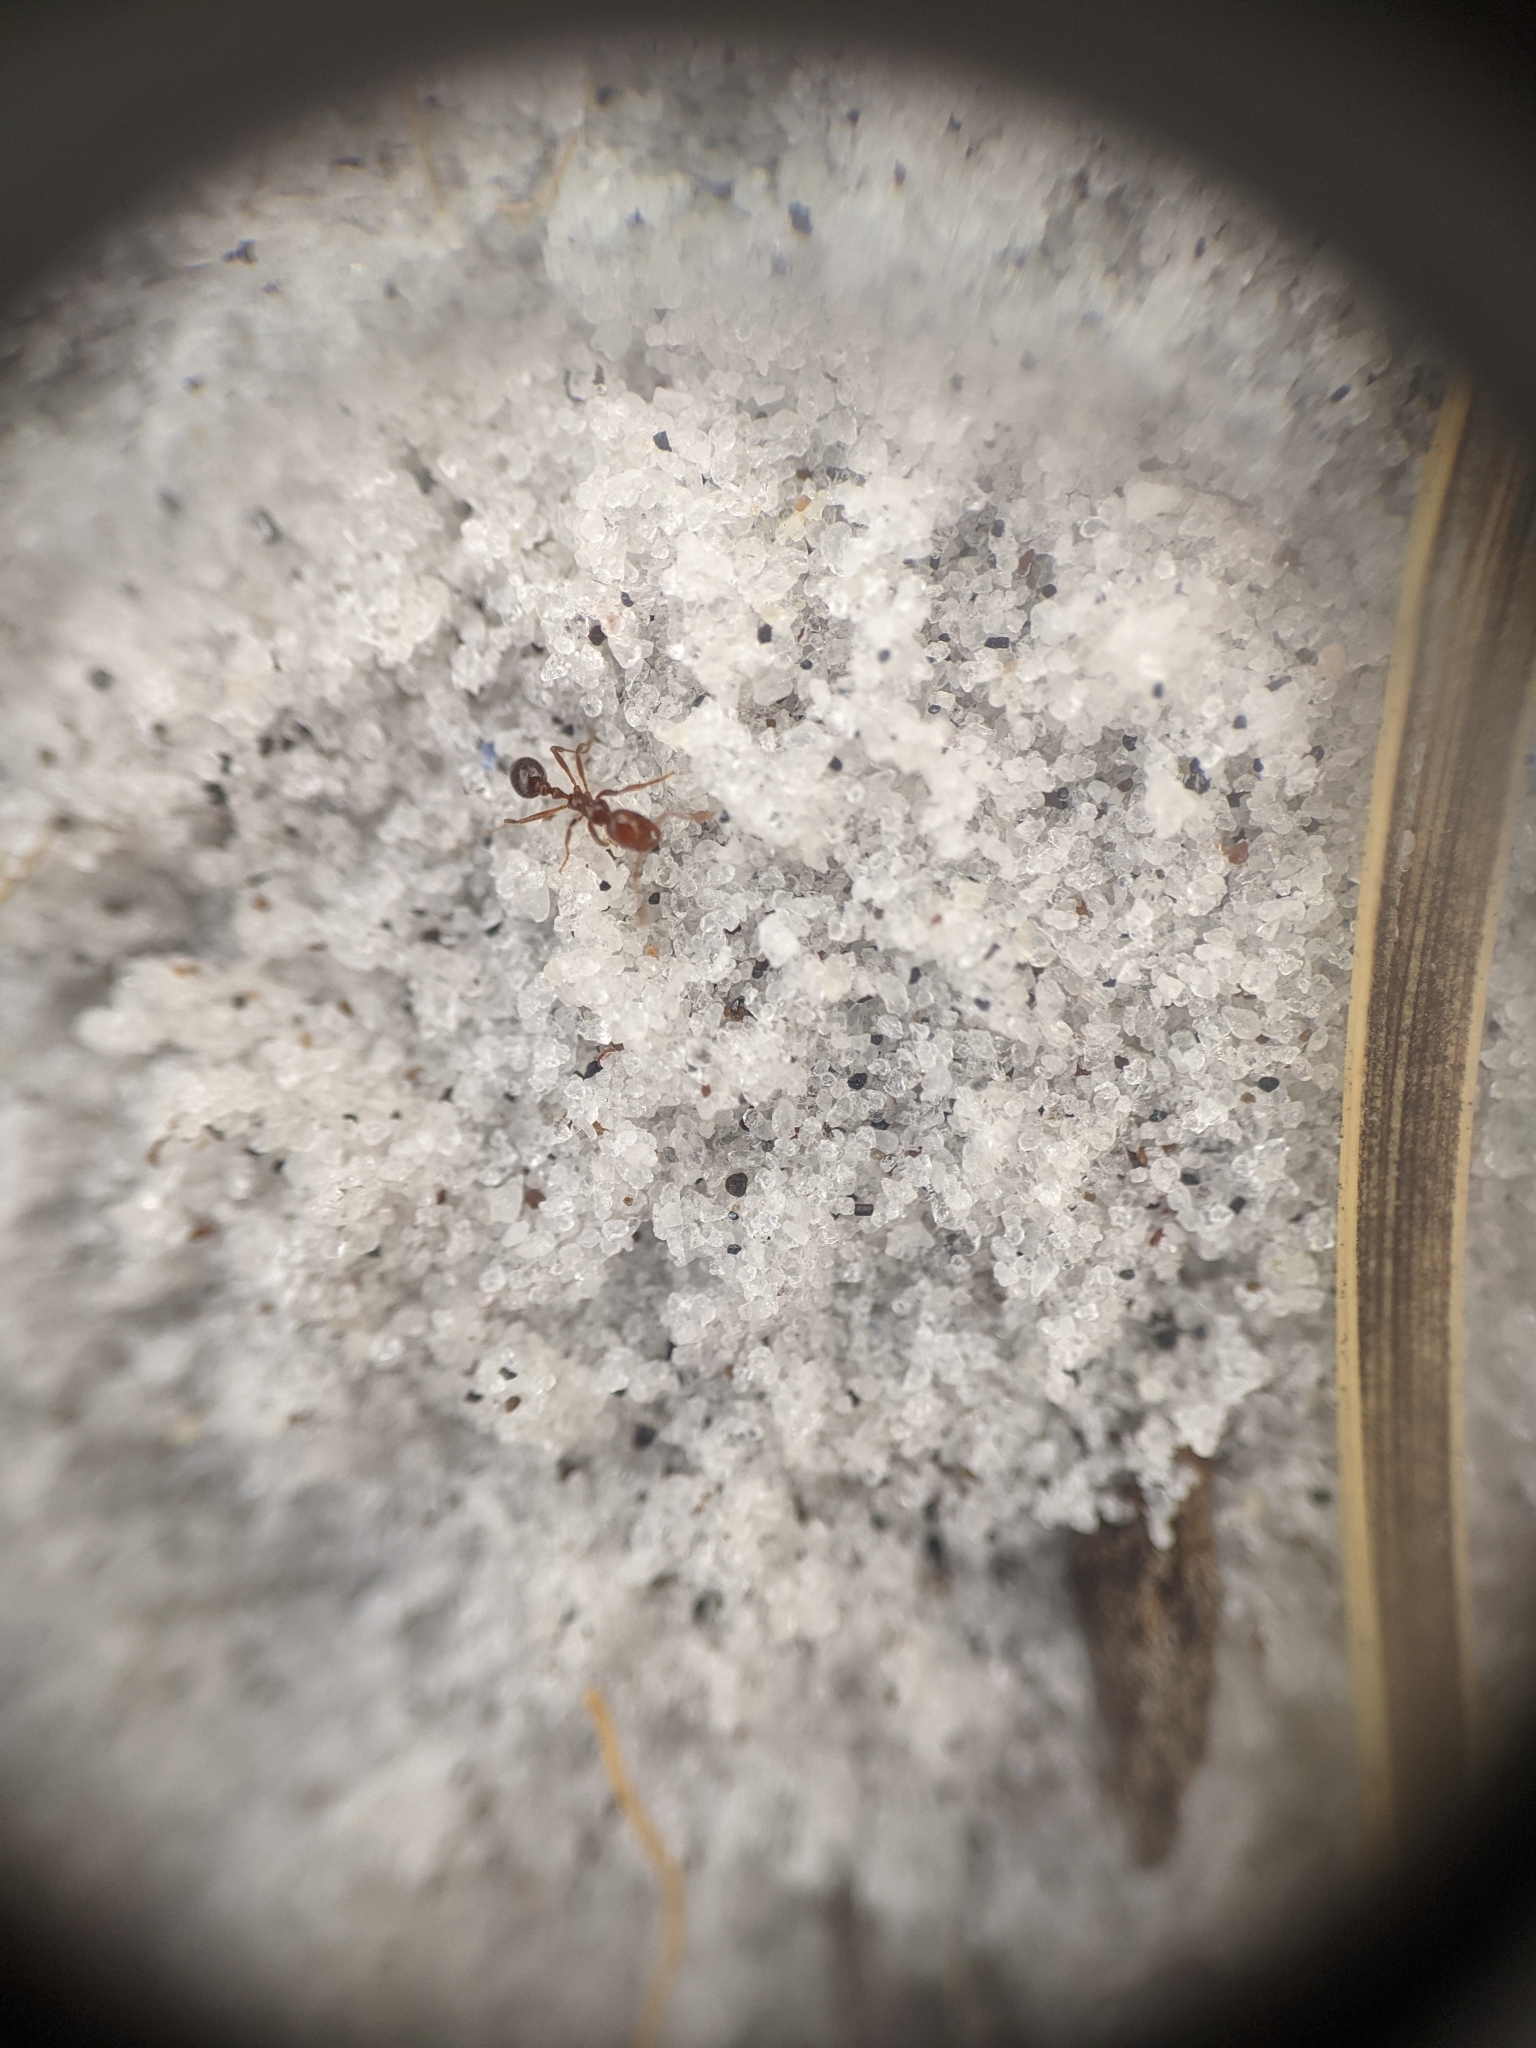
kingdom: Animalia
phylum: Arthropoda
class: Insecta
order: Hymenoptera
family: Formicidae
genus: Solenopsis
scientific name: Solenopsis invicta
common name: Red imported fire ant
